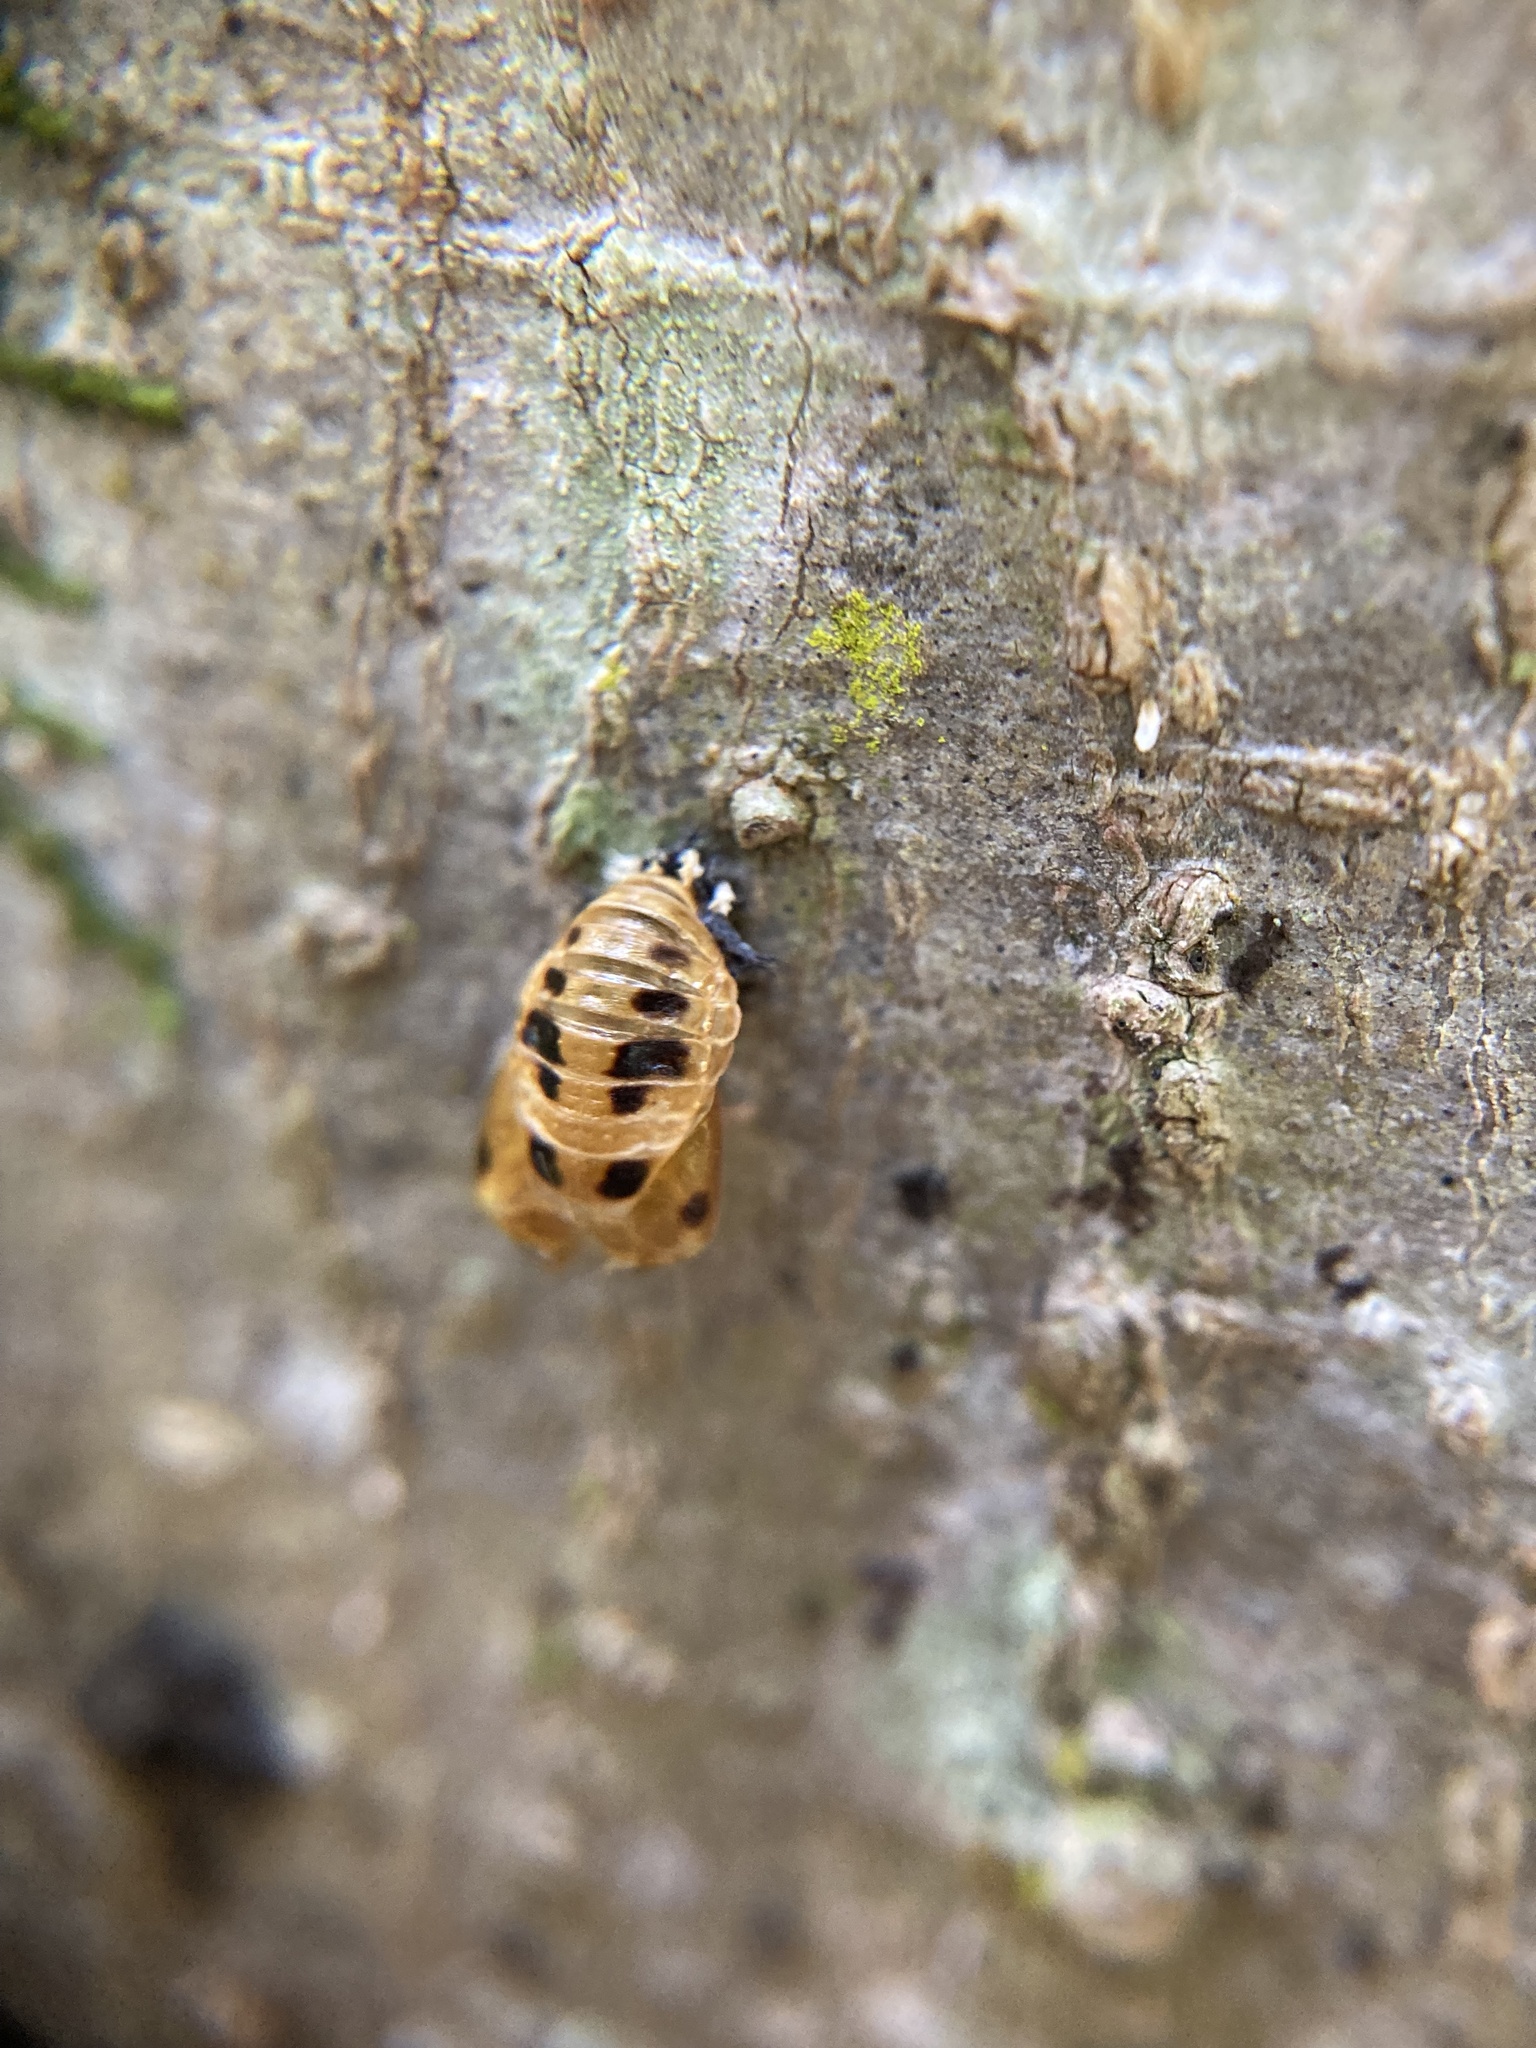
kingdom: Animalia
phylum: Arthropoda
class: Insecta
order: Coleoptera
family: Coccinellidae
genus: Harmonia
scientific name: Harmonia axyridis
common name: Harlequin ladybird
